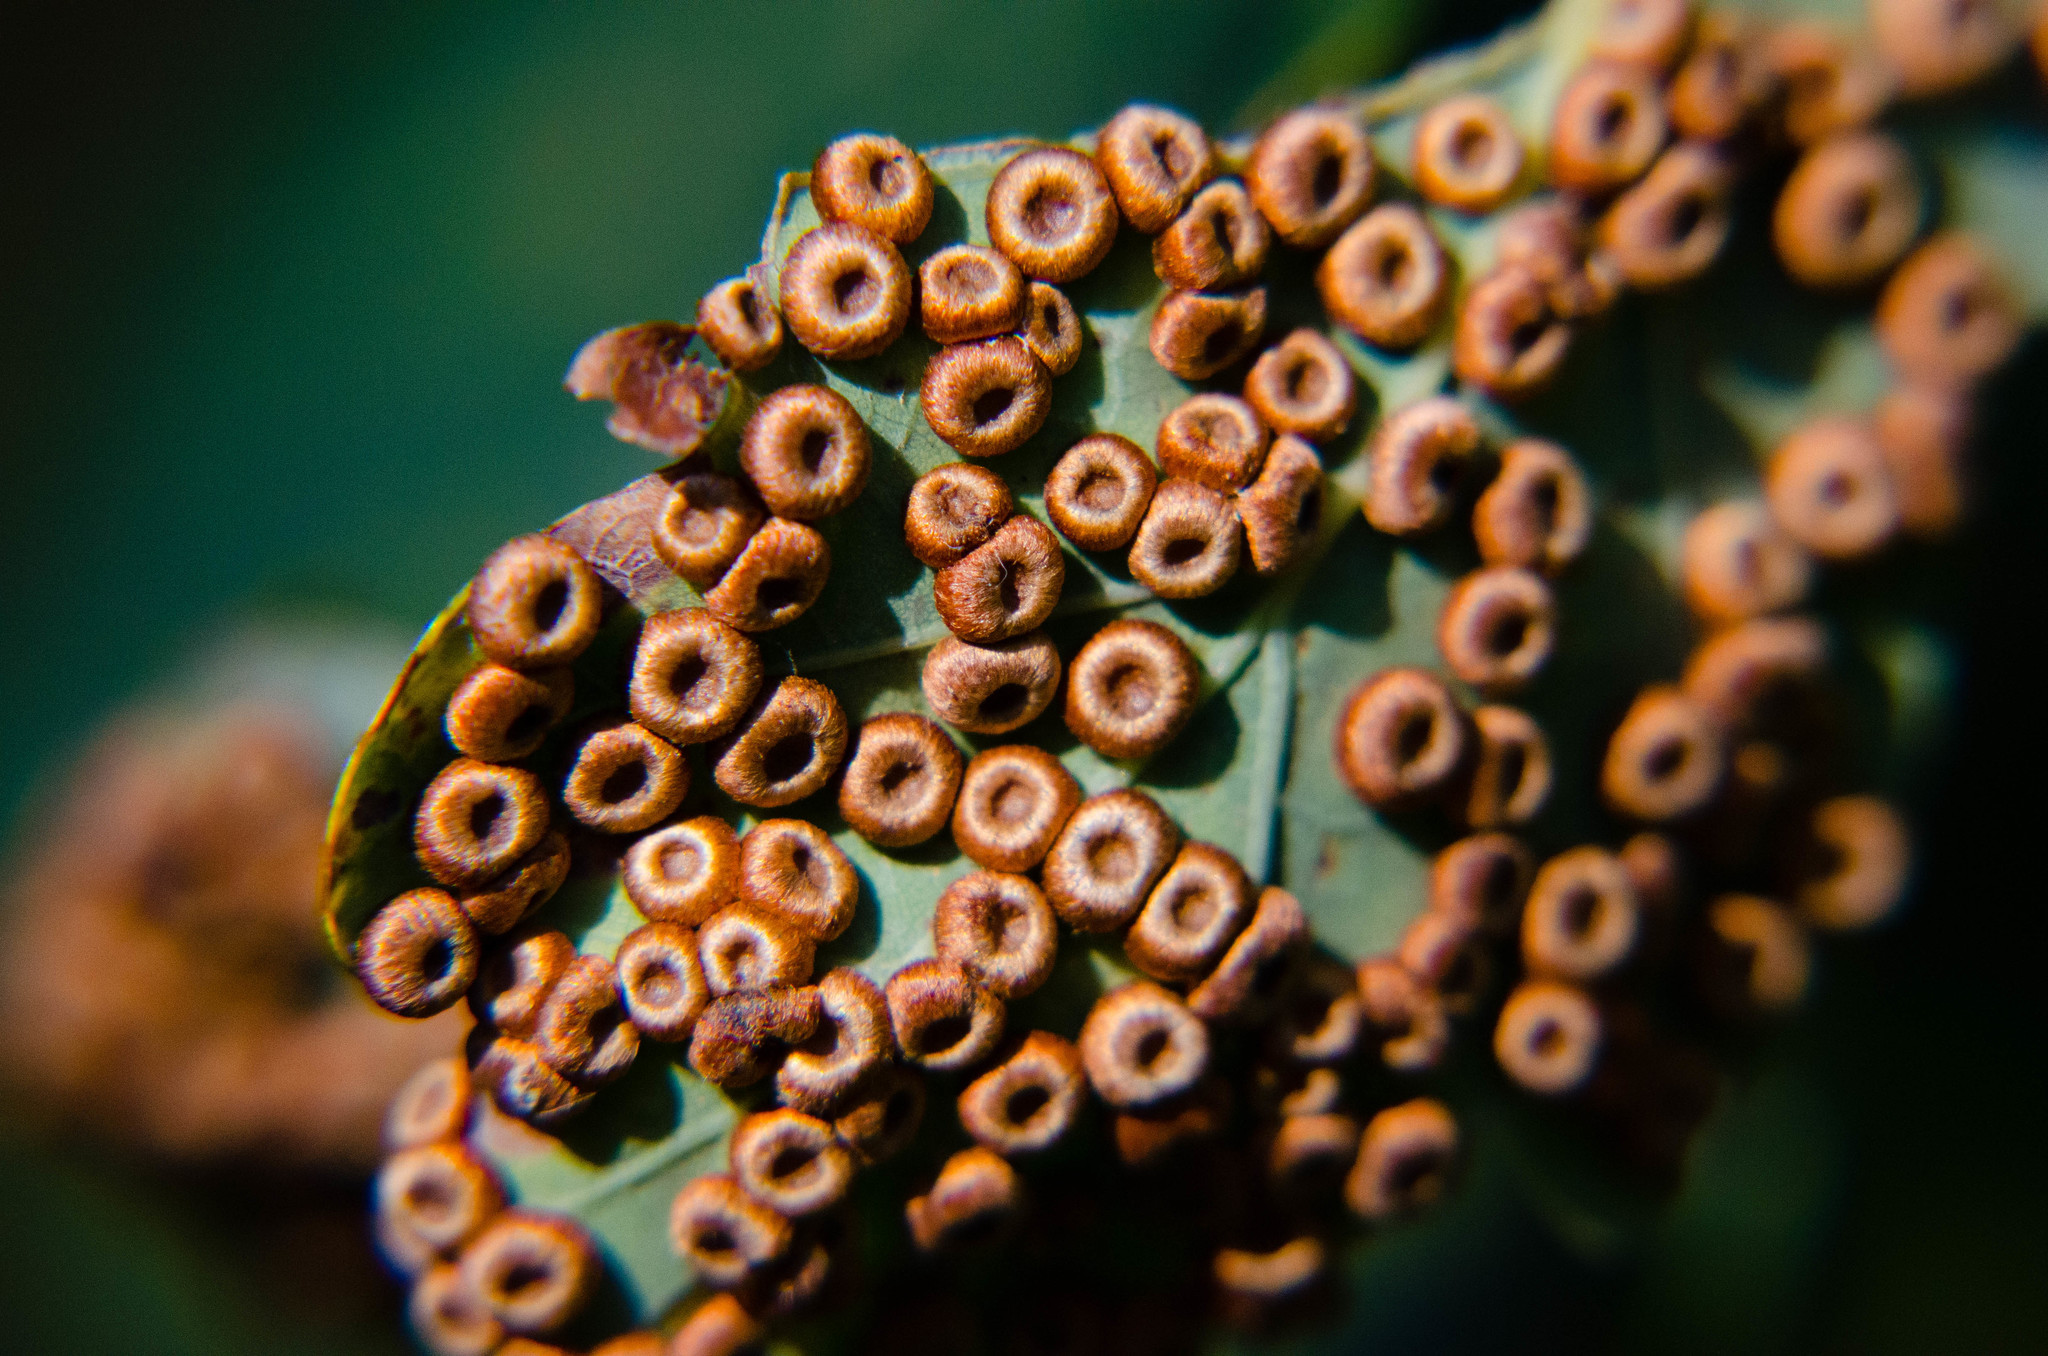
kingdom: Animalia
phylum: Arthropoda
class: Insecta
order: Hymenoptera
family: Cynipidae
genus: Neuroterus
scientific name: Neuroterus numismalis
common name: Silk-button spangle gall
